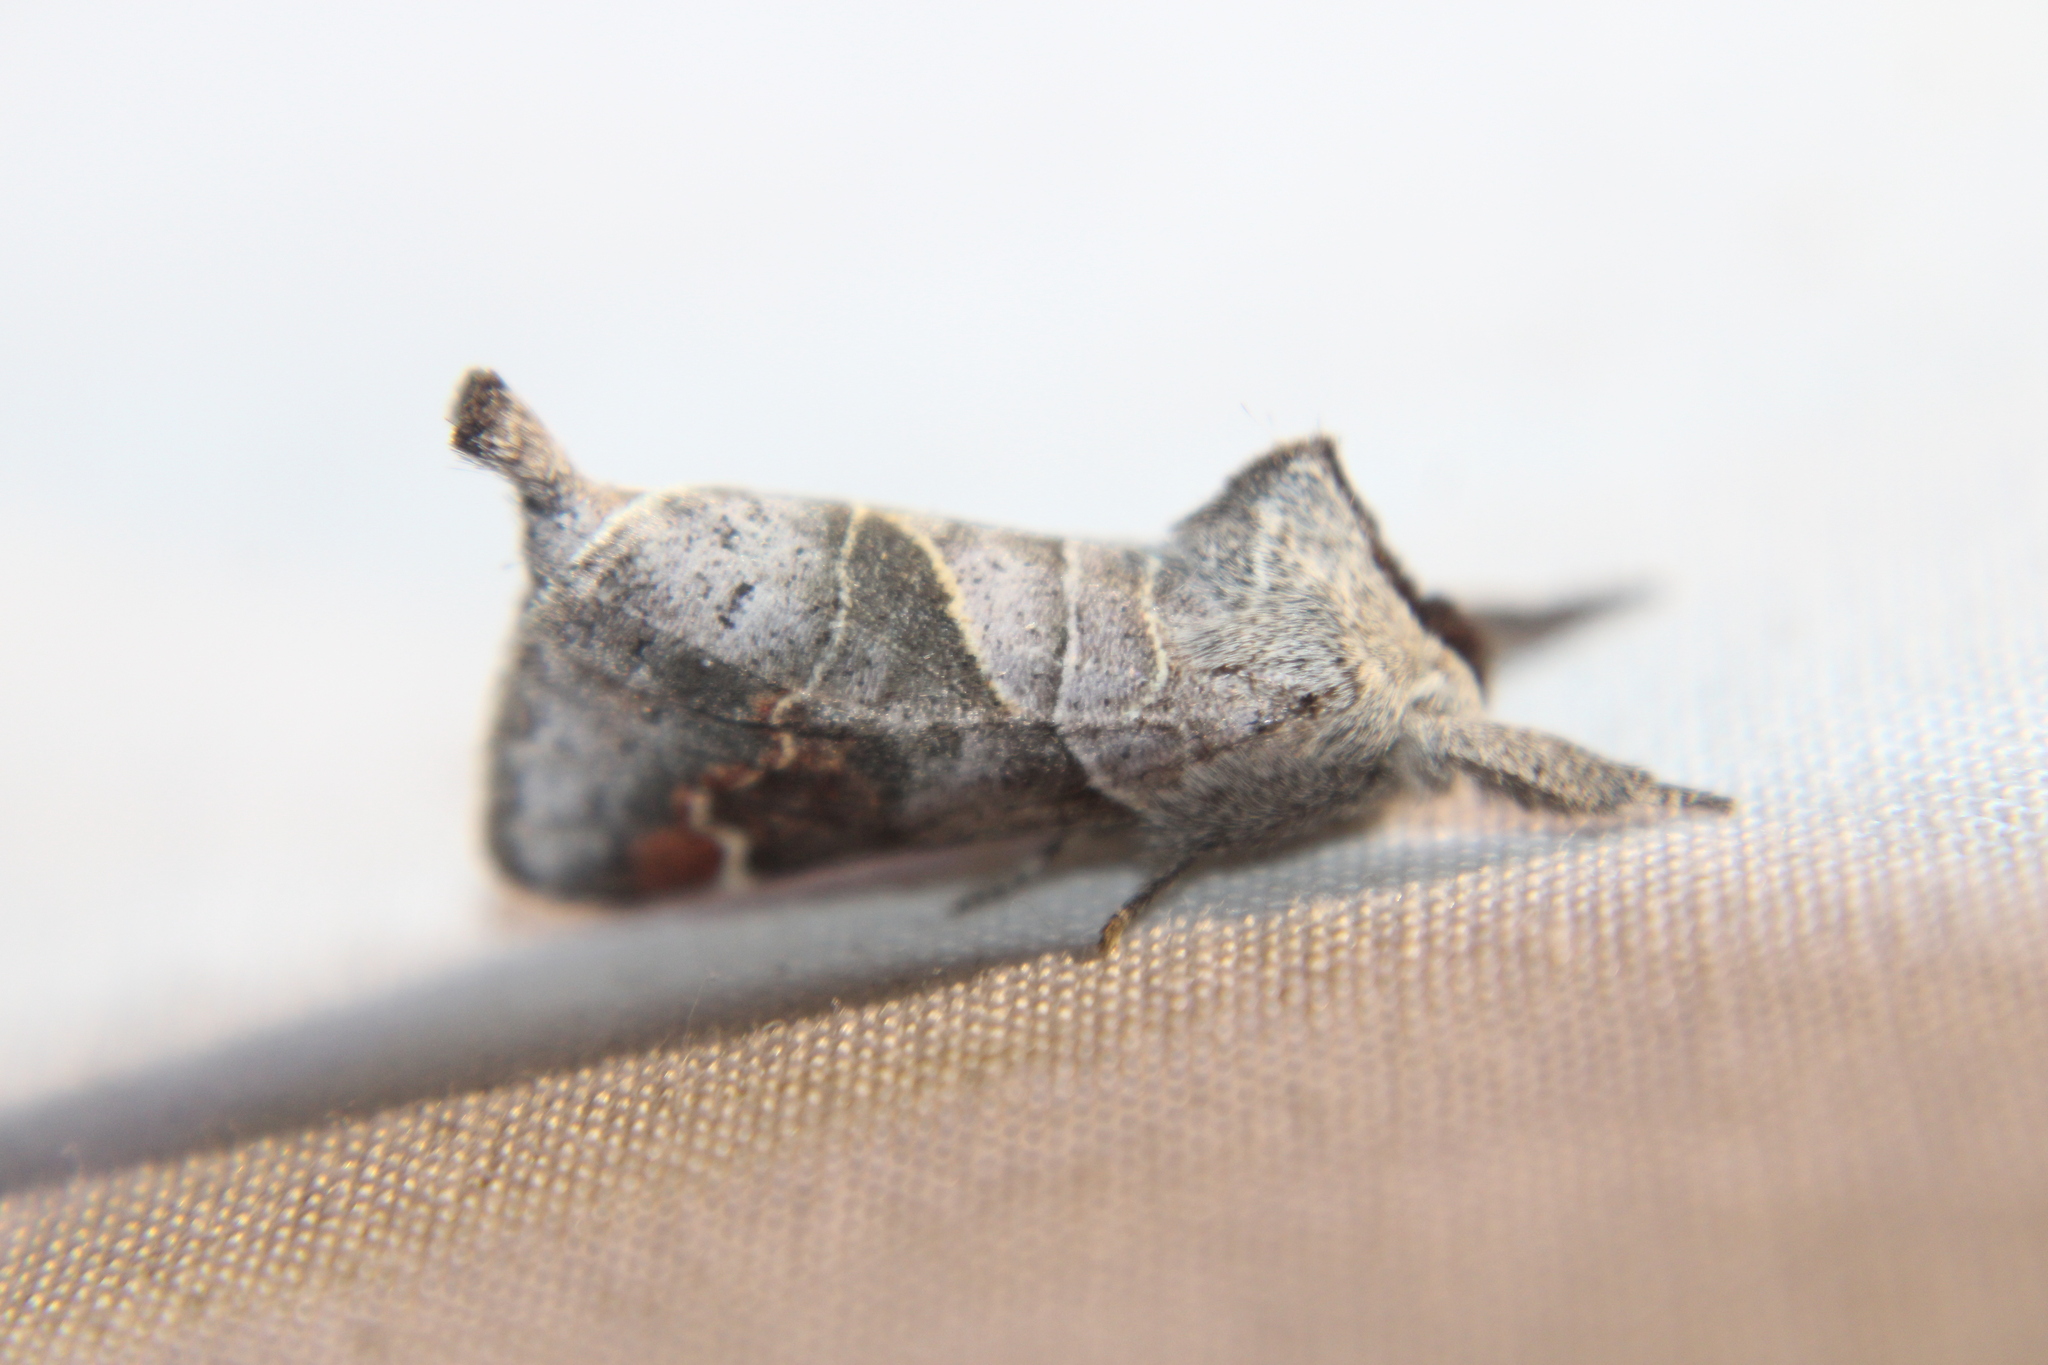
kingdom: Animalia
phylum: Arthropoda
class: Insecta
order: Lepidoptera
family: Notodontidae
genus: Clostera
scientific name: Clostera apicalis
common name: Apical prominent
